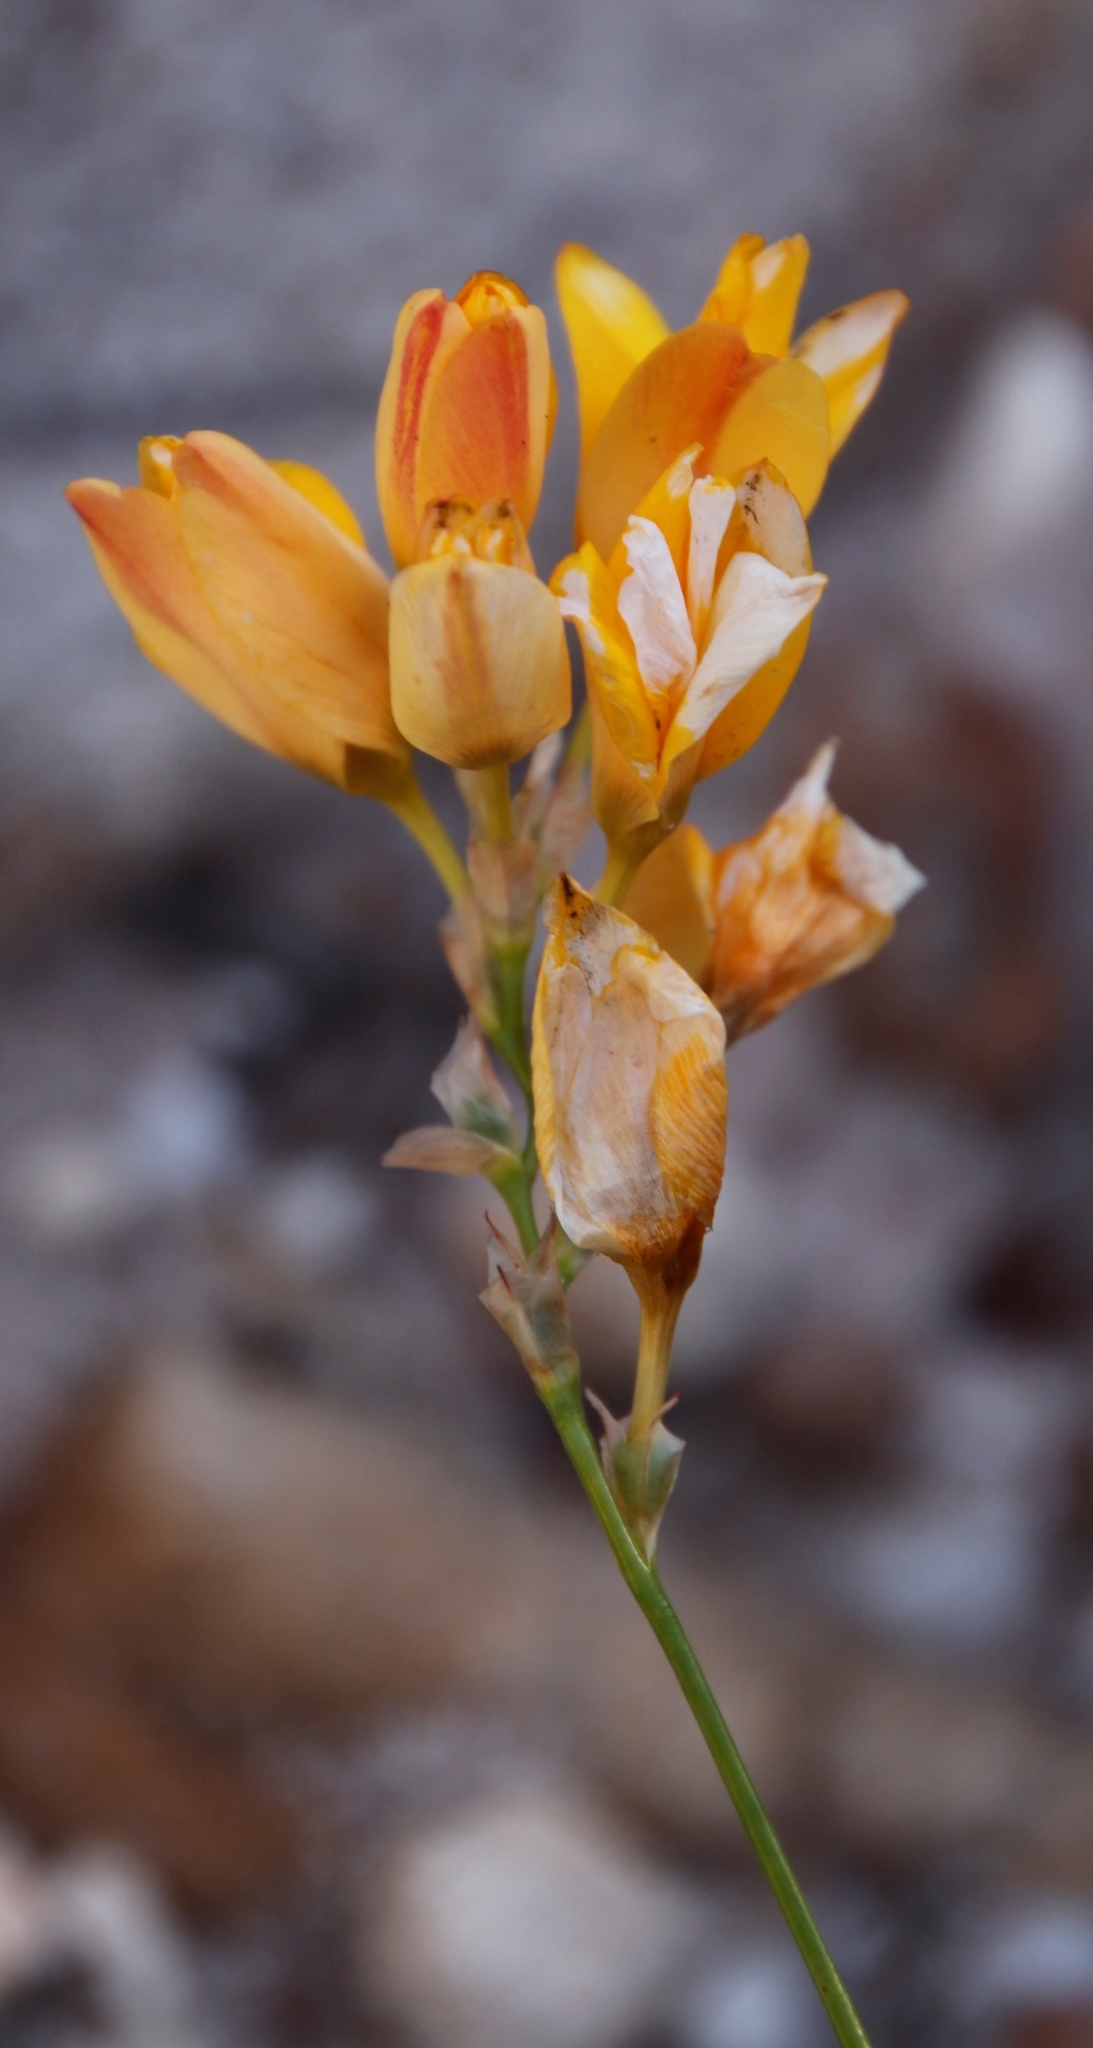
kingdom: Plantae
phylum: Tracheophyta
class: Liliopsida
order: Asparagales
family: Iridaceae
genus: Ixia
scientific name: Ixia dubia
